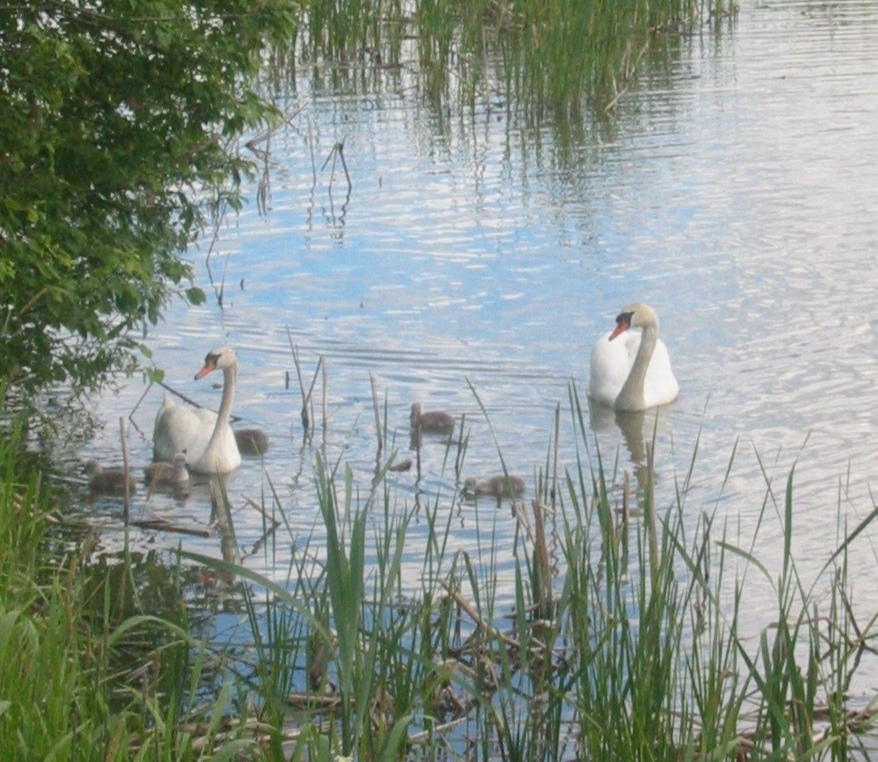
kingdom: Animalia
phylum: Chordata
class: Aves
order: Anseriformes
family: Anatidae
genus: Cygnus
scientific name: Cygnus olor
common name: Mute swan
